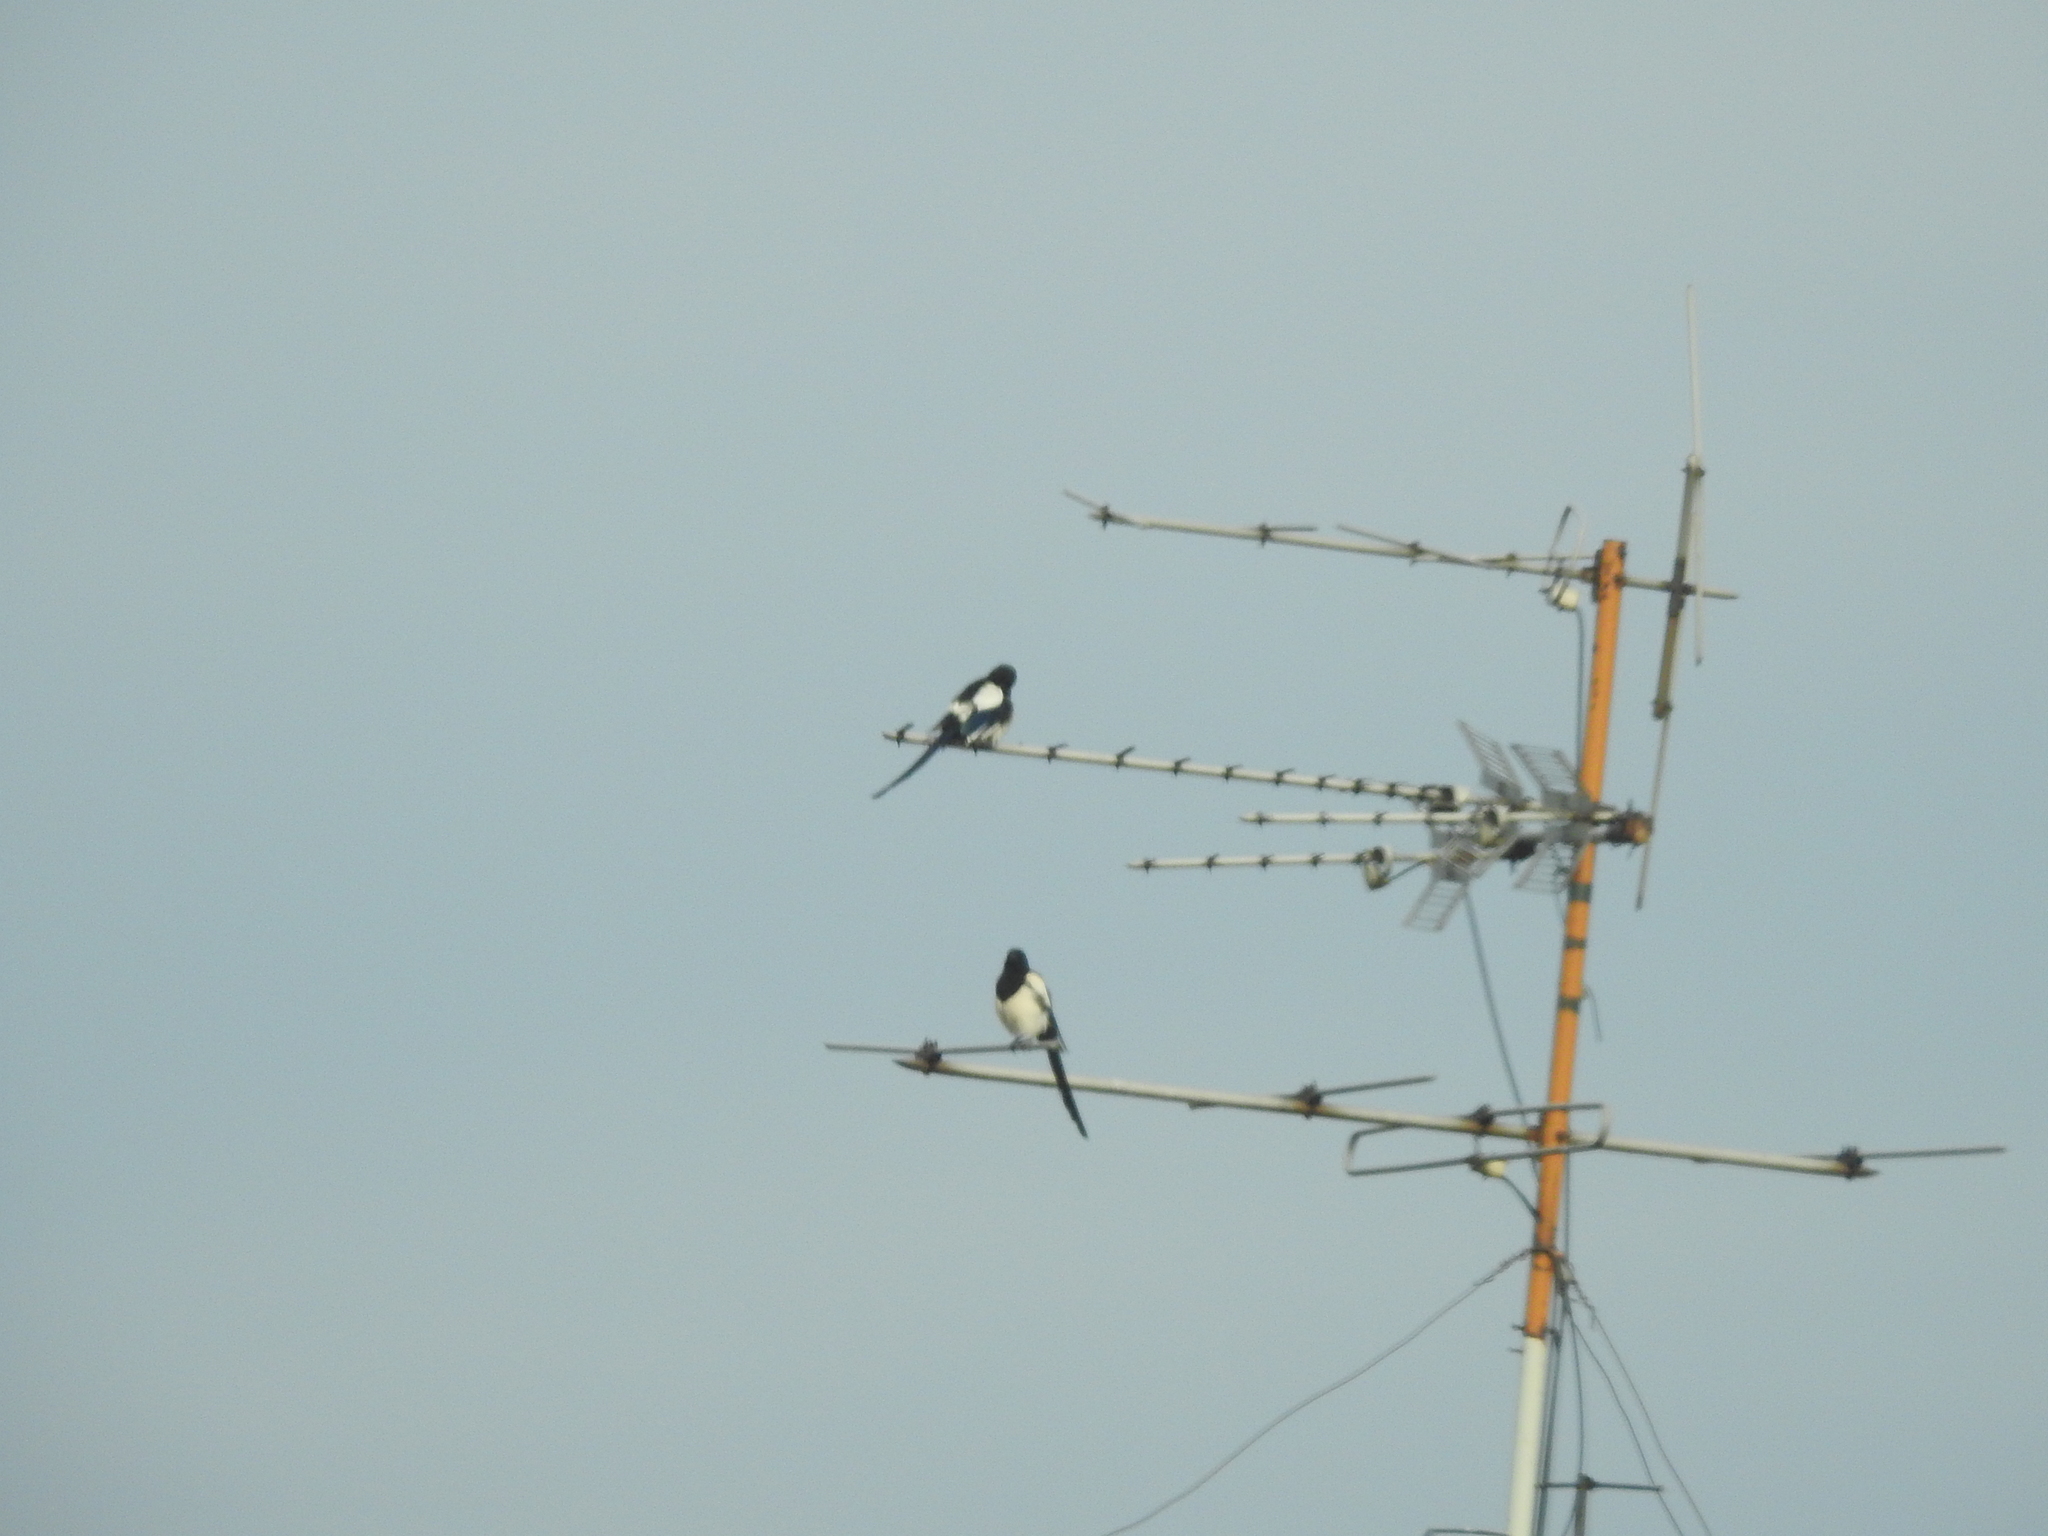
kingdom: Animalia
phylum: Chordata
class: Aves
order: Passeriformes
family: Corvidae
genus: Pica
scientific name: Pica pica
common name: Eurasian magpie
